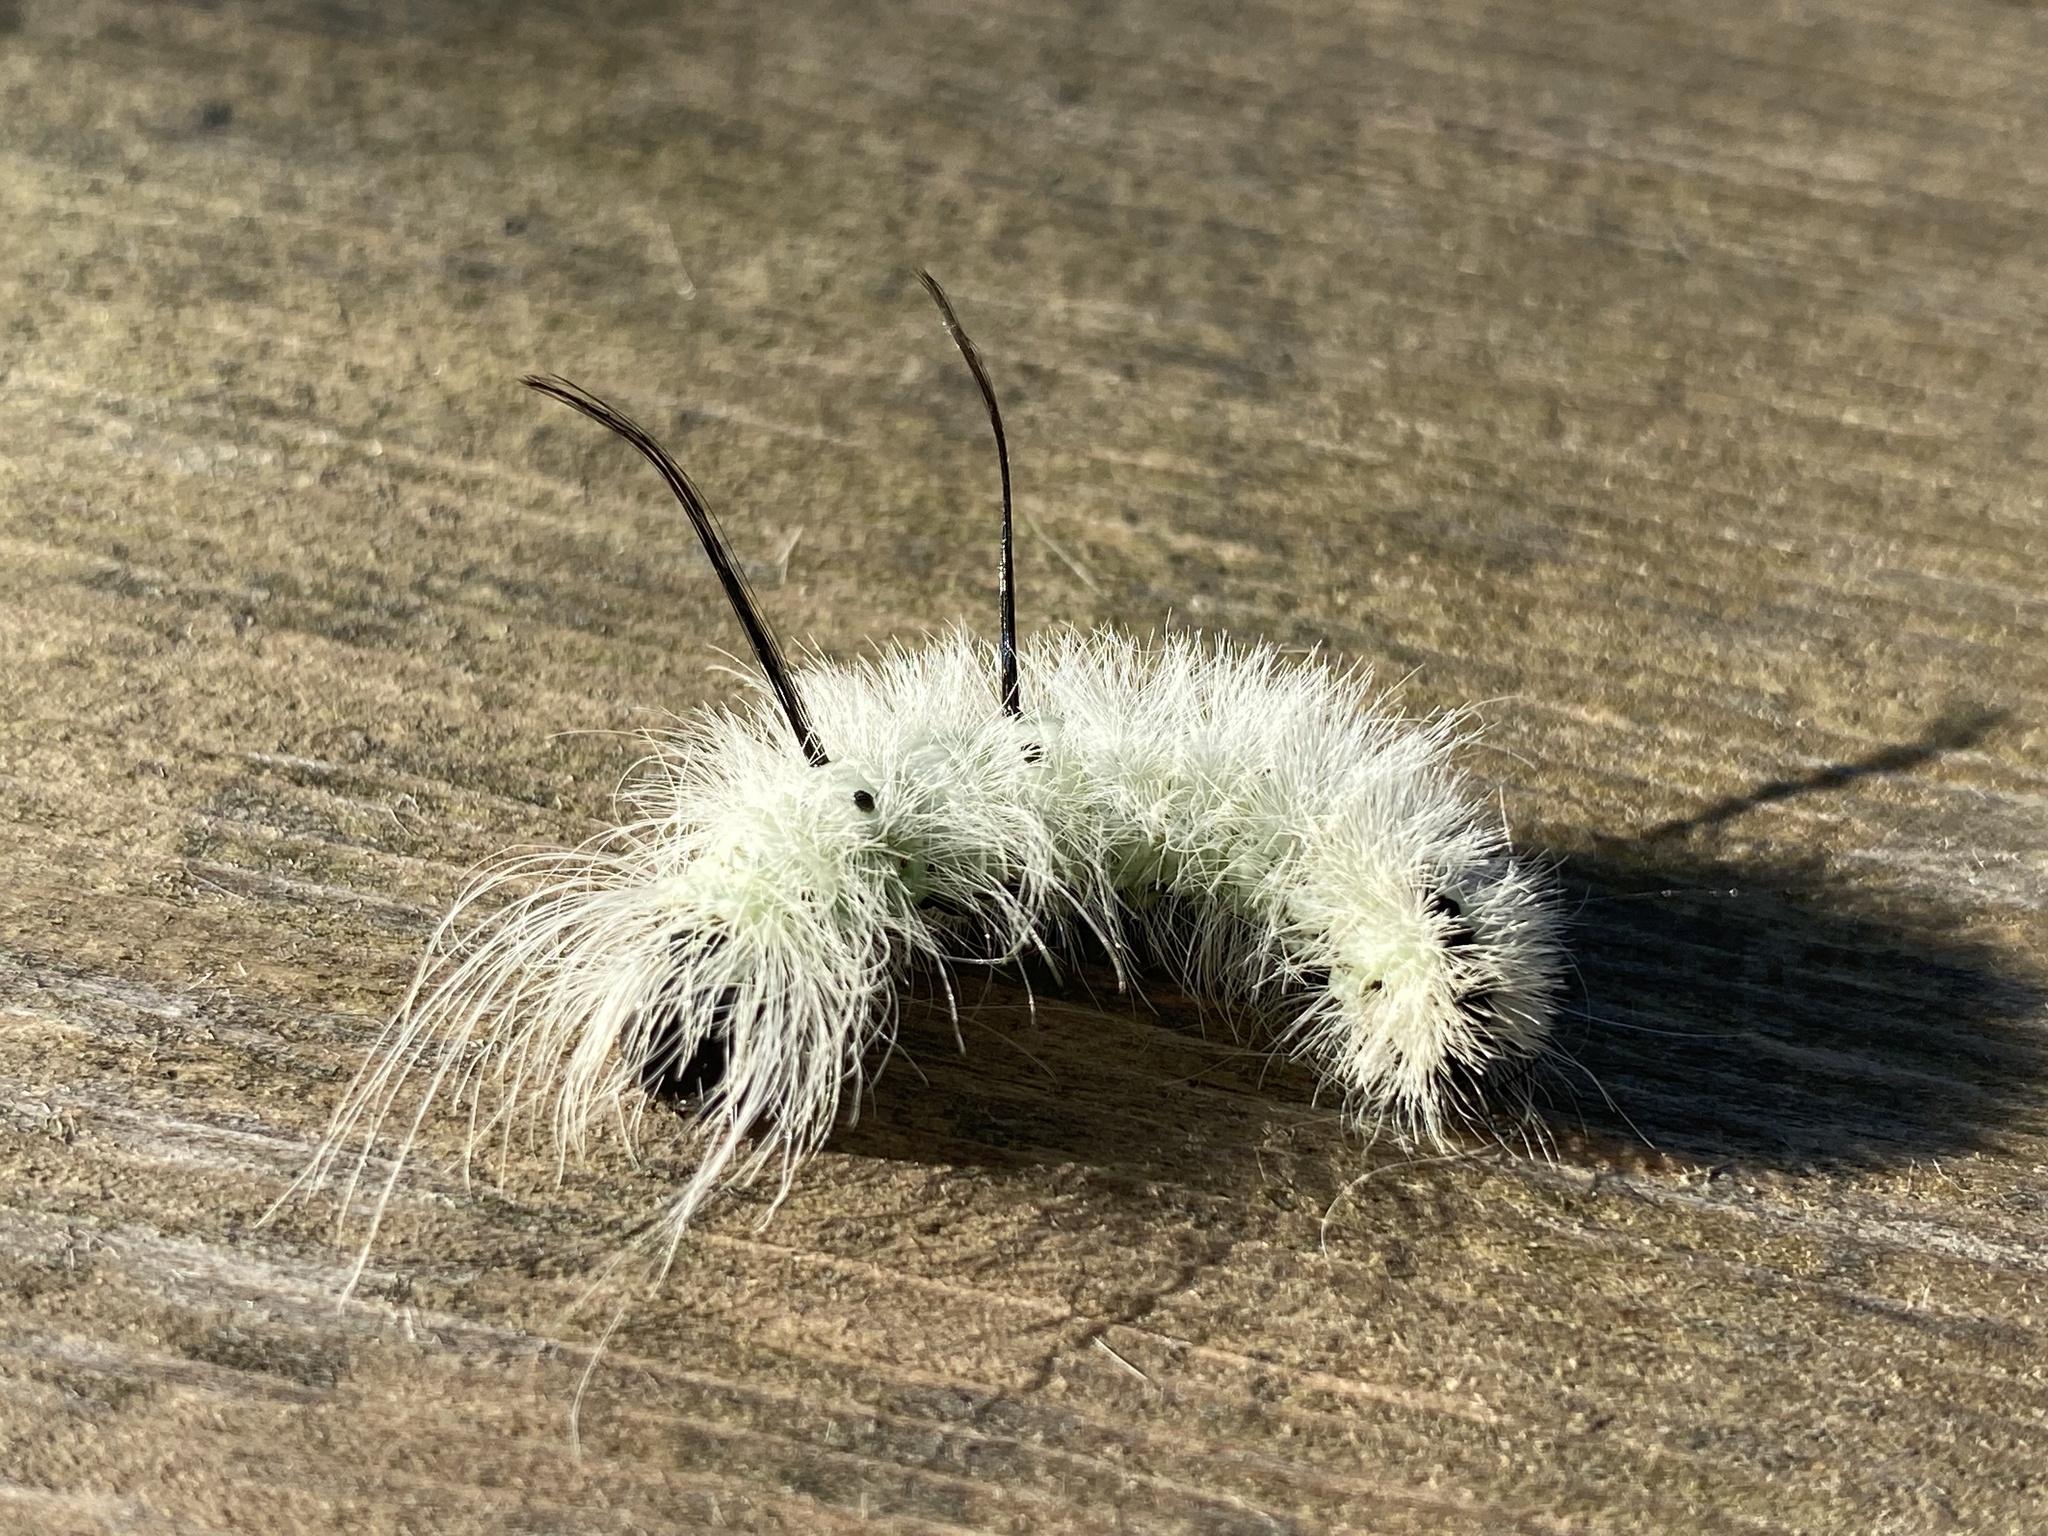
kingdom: Animalia
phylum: Arthropoda
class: Insecta
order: Lepidoptera
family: Noctuidae
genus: Acronicta
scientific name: Acronicta americana
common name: American dagger
